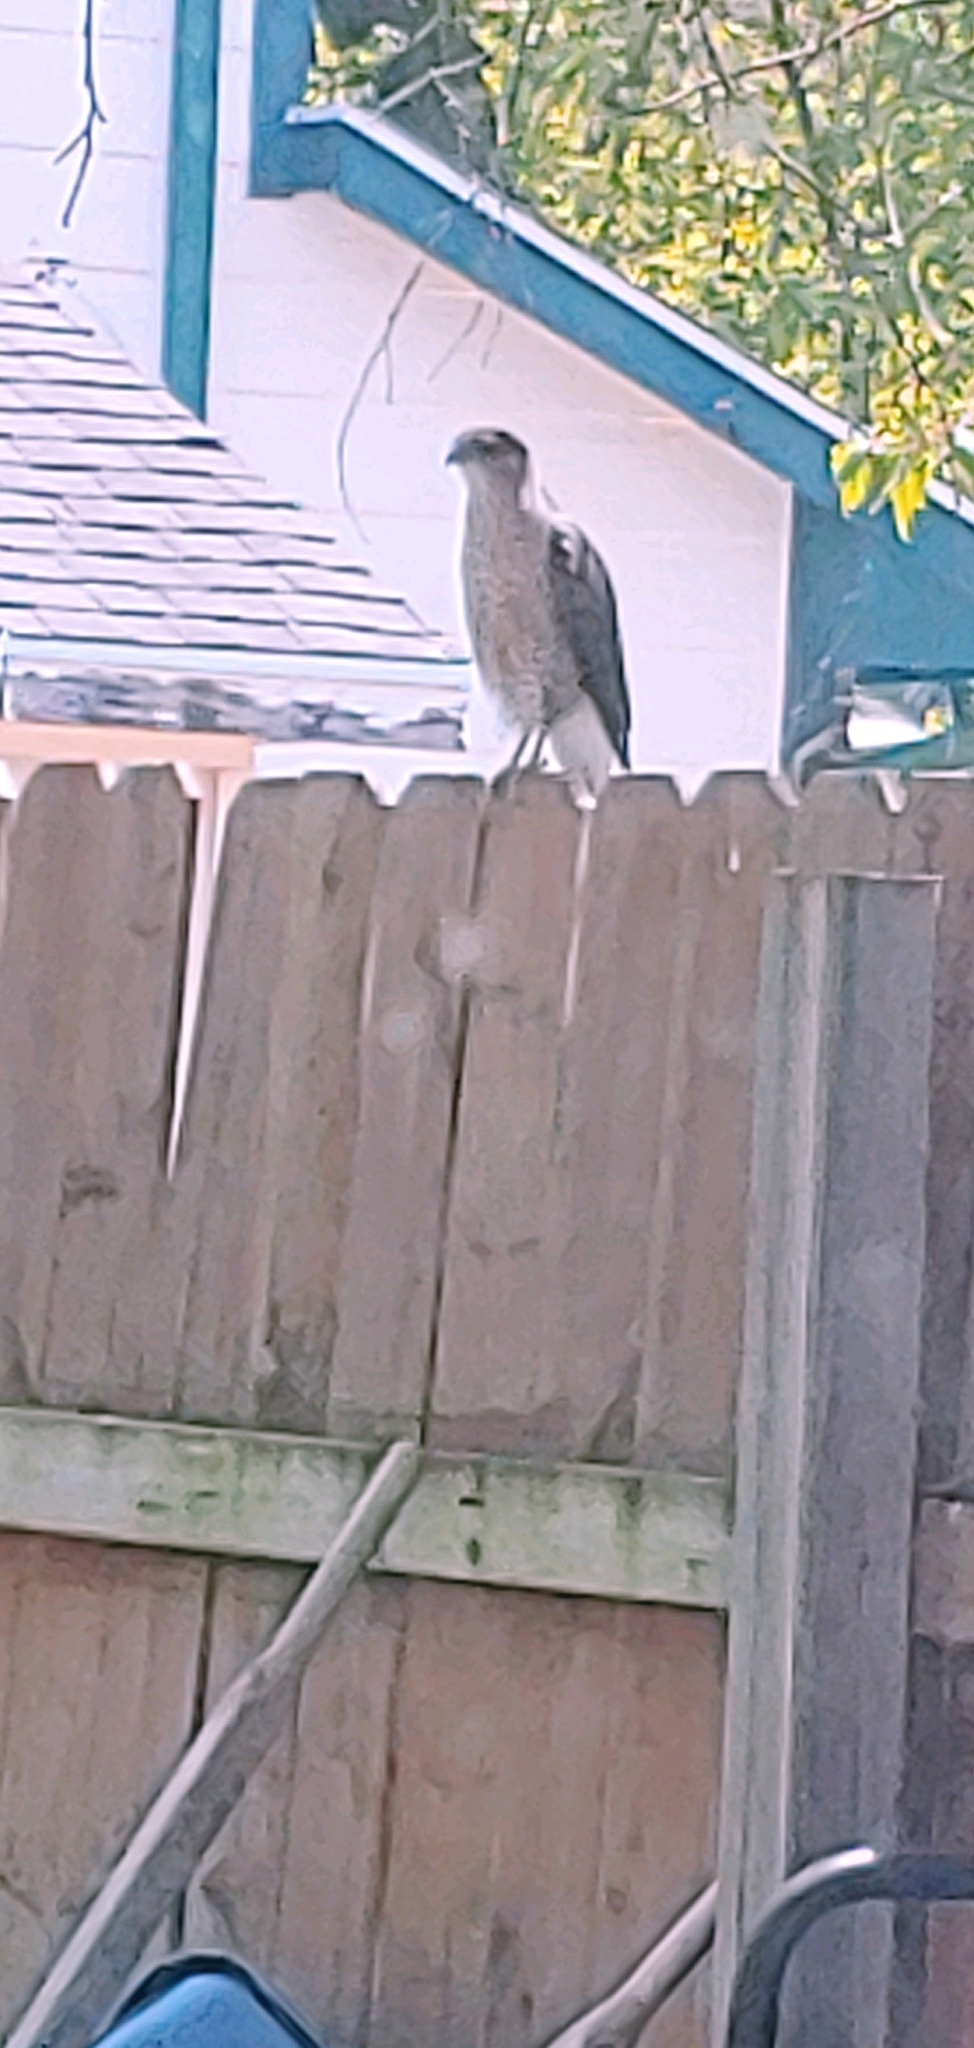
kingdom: Animalia
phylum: Chordata
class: Aves
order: Accipitriformes
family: Accipitridae
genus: Accipiter
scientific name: Accipiter cooperii
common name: Cooper's hawk
